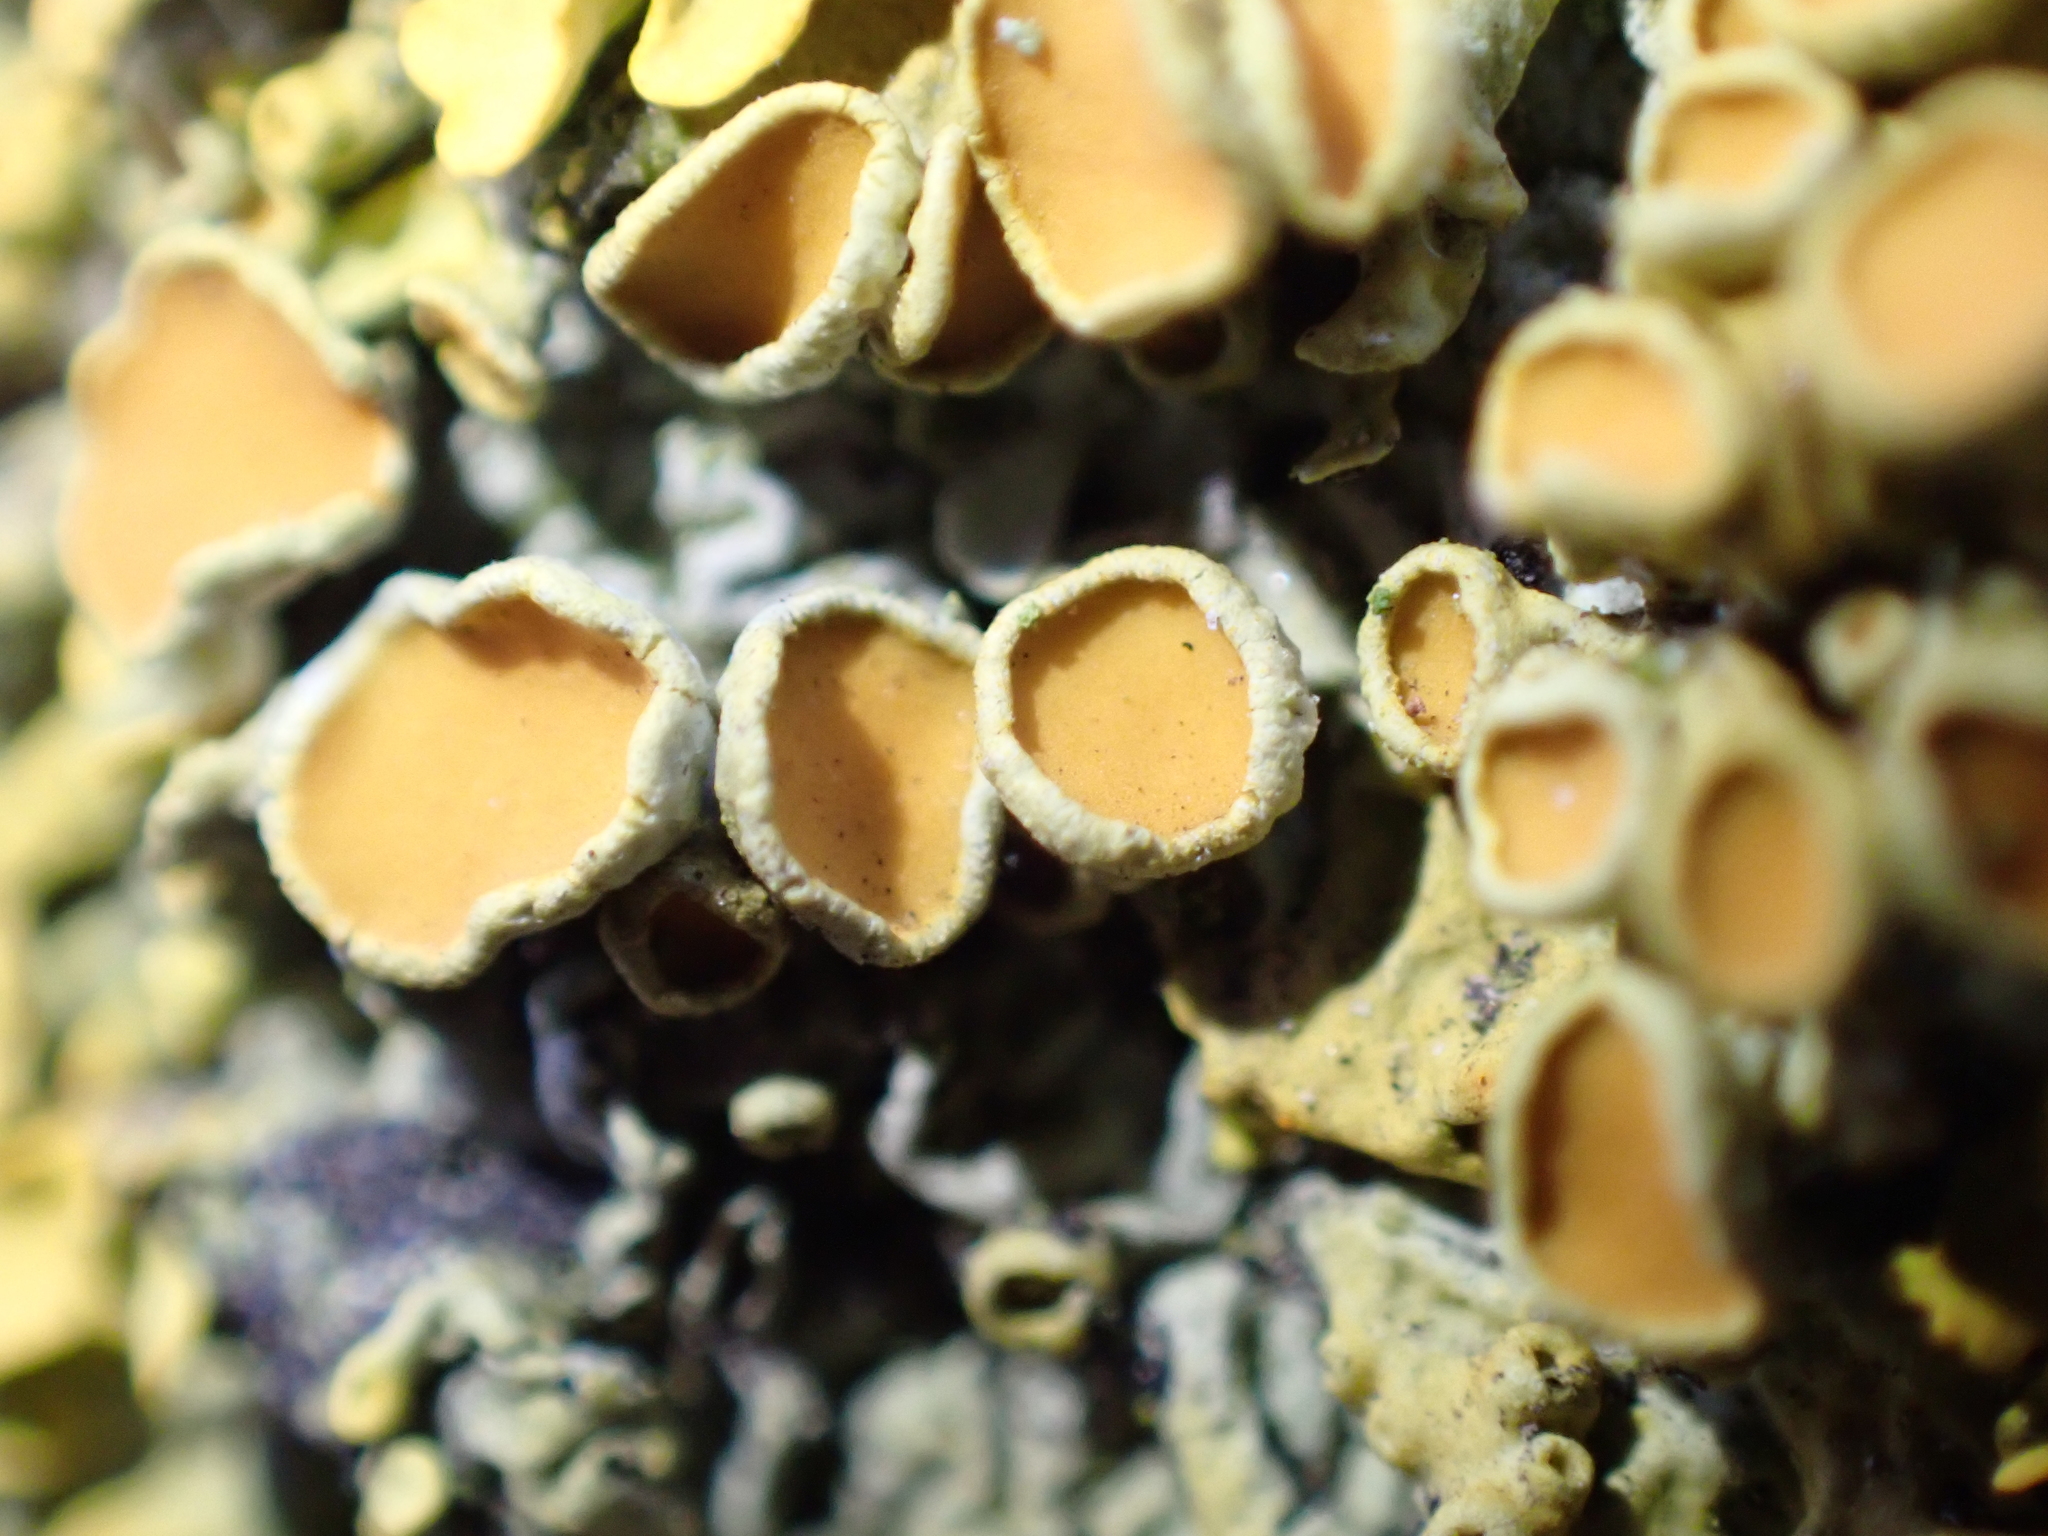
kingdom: Fungi
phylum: Ascomycota
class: Lecanoromycetes
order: Teloschistales
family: Teloschistaceae
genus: Xanthoria
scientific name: Xanthoria parietina
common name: Common orange lichen
